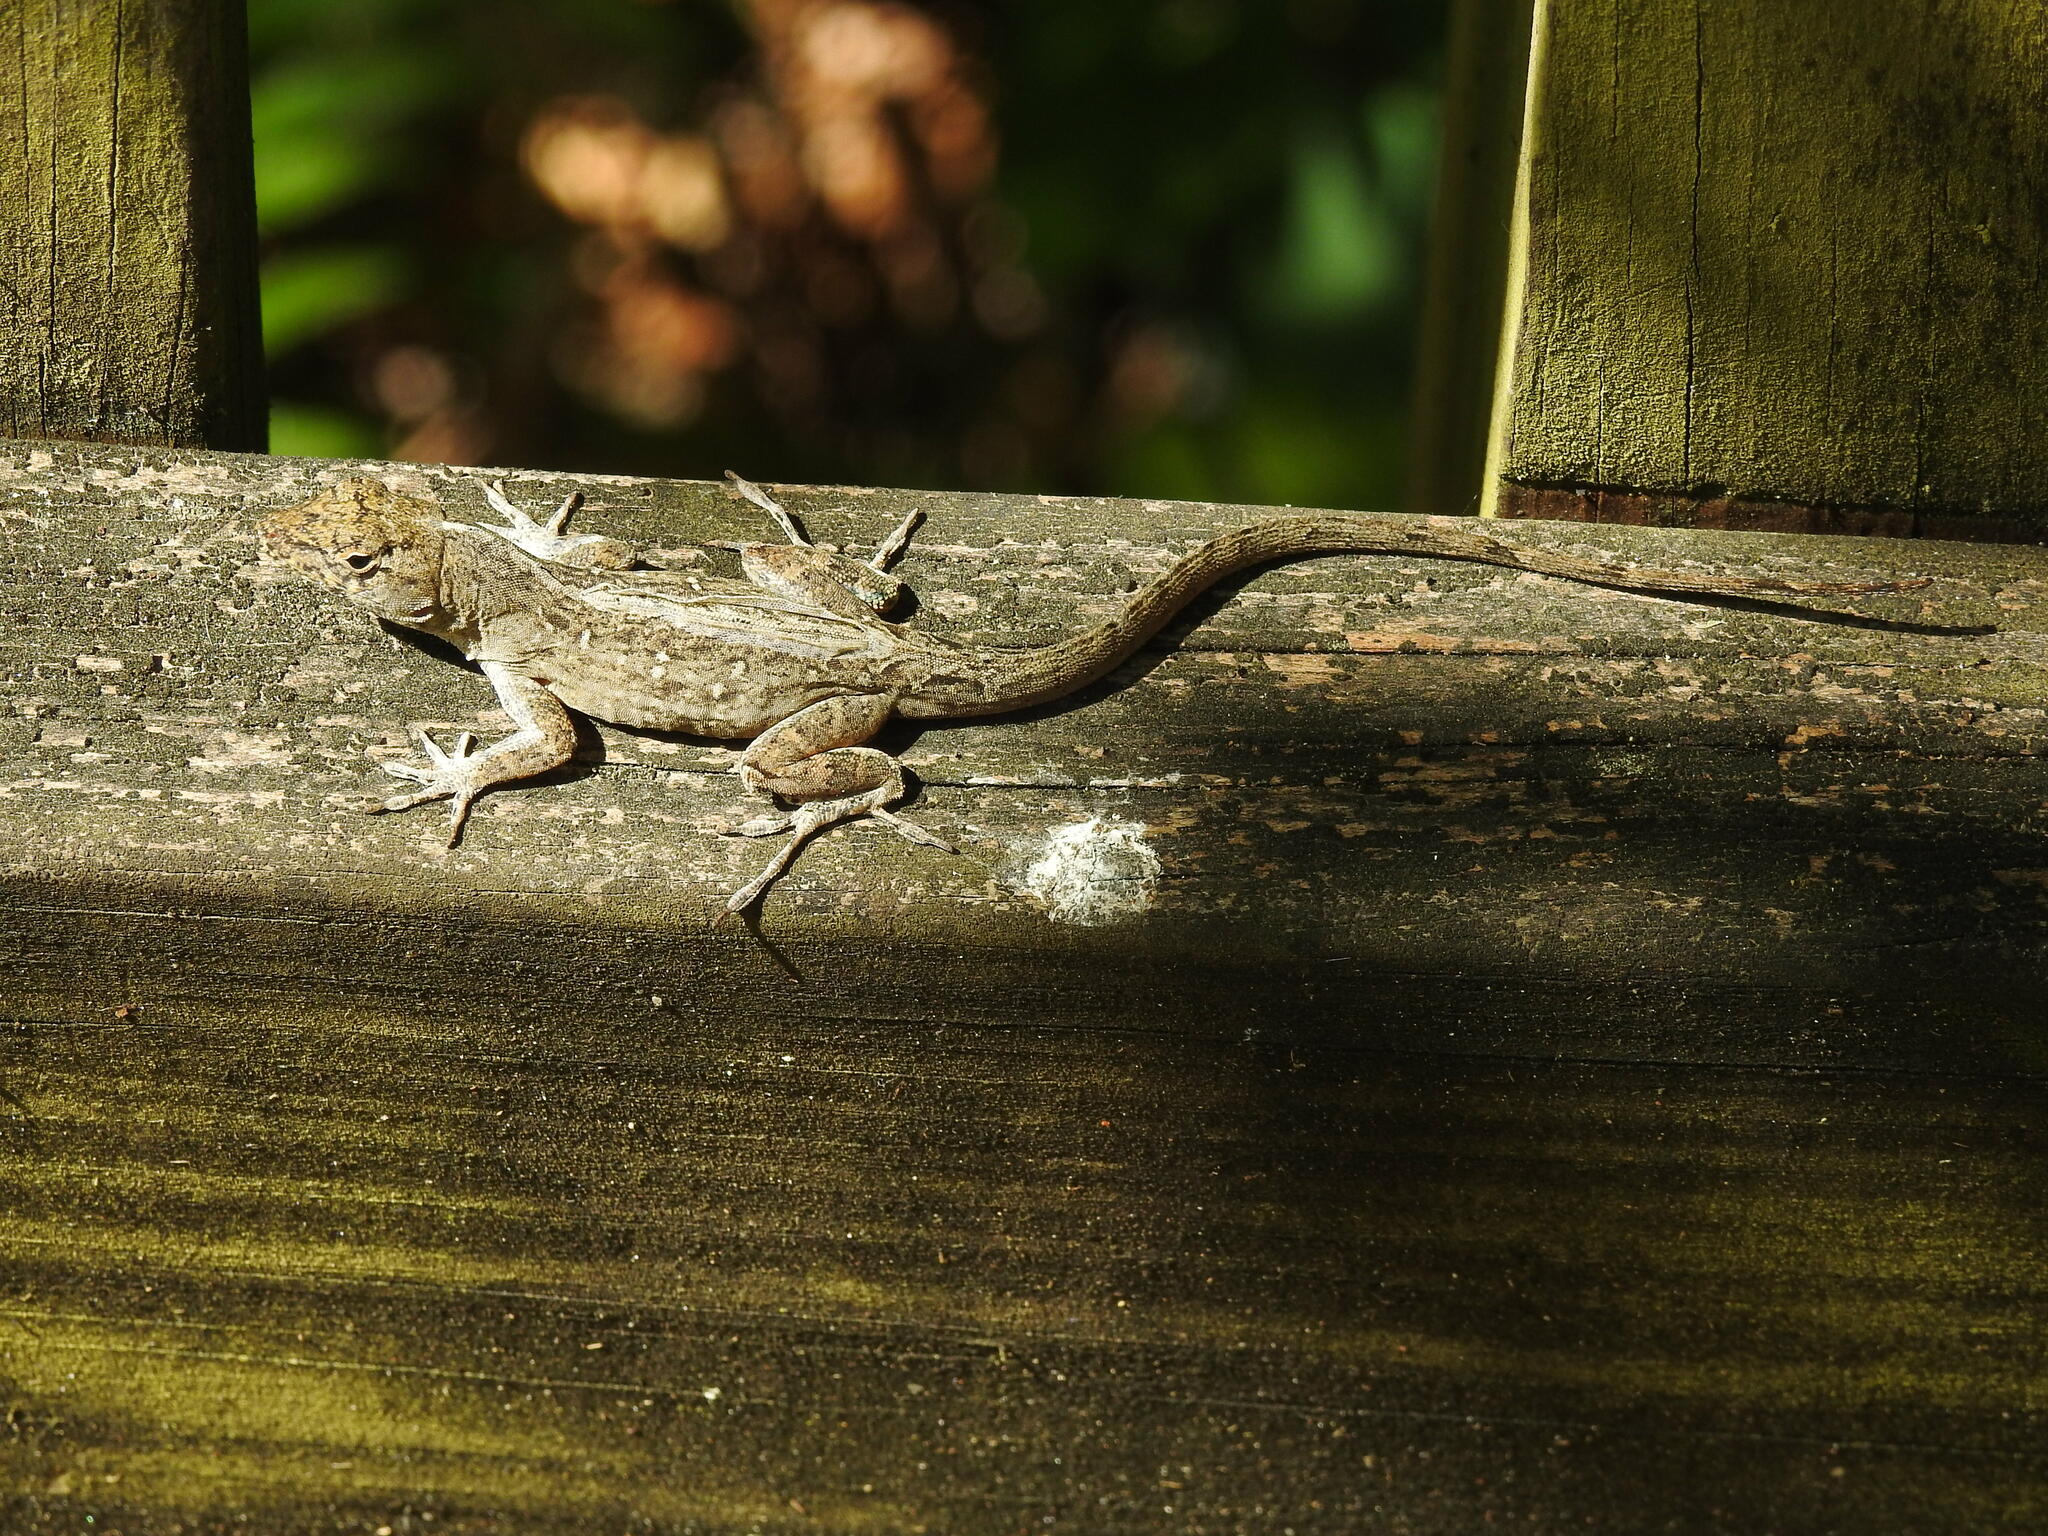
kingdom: Animalia
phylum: Chordata
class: Squamata
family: Dactyloidae
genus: Anolis
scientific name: Anolis sagrei
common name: Brown anole
